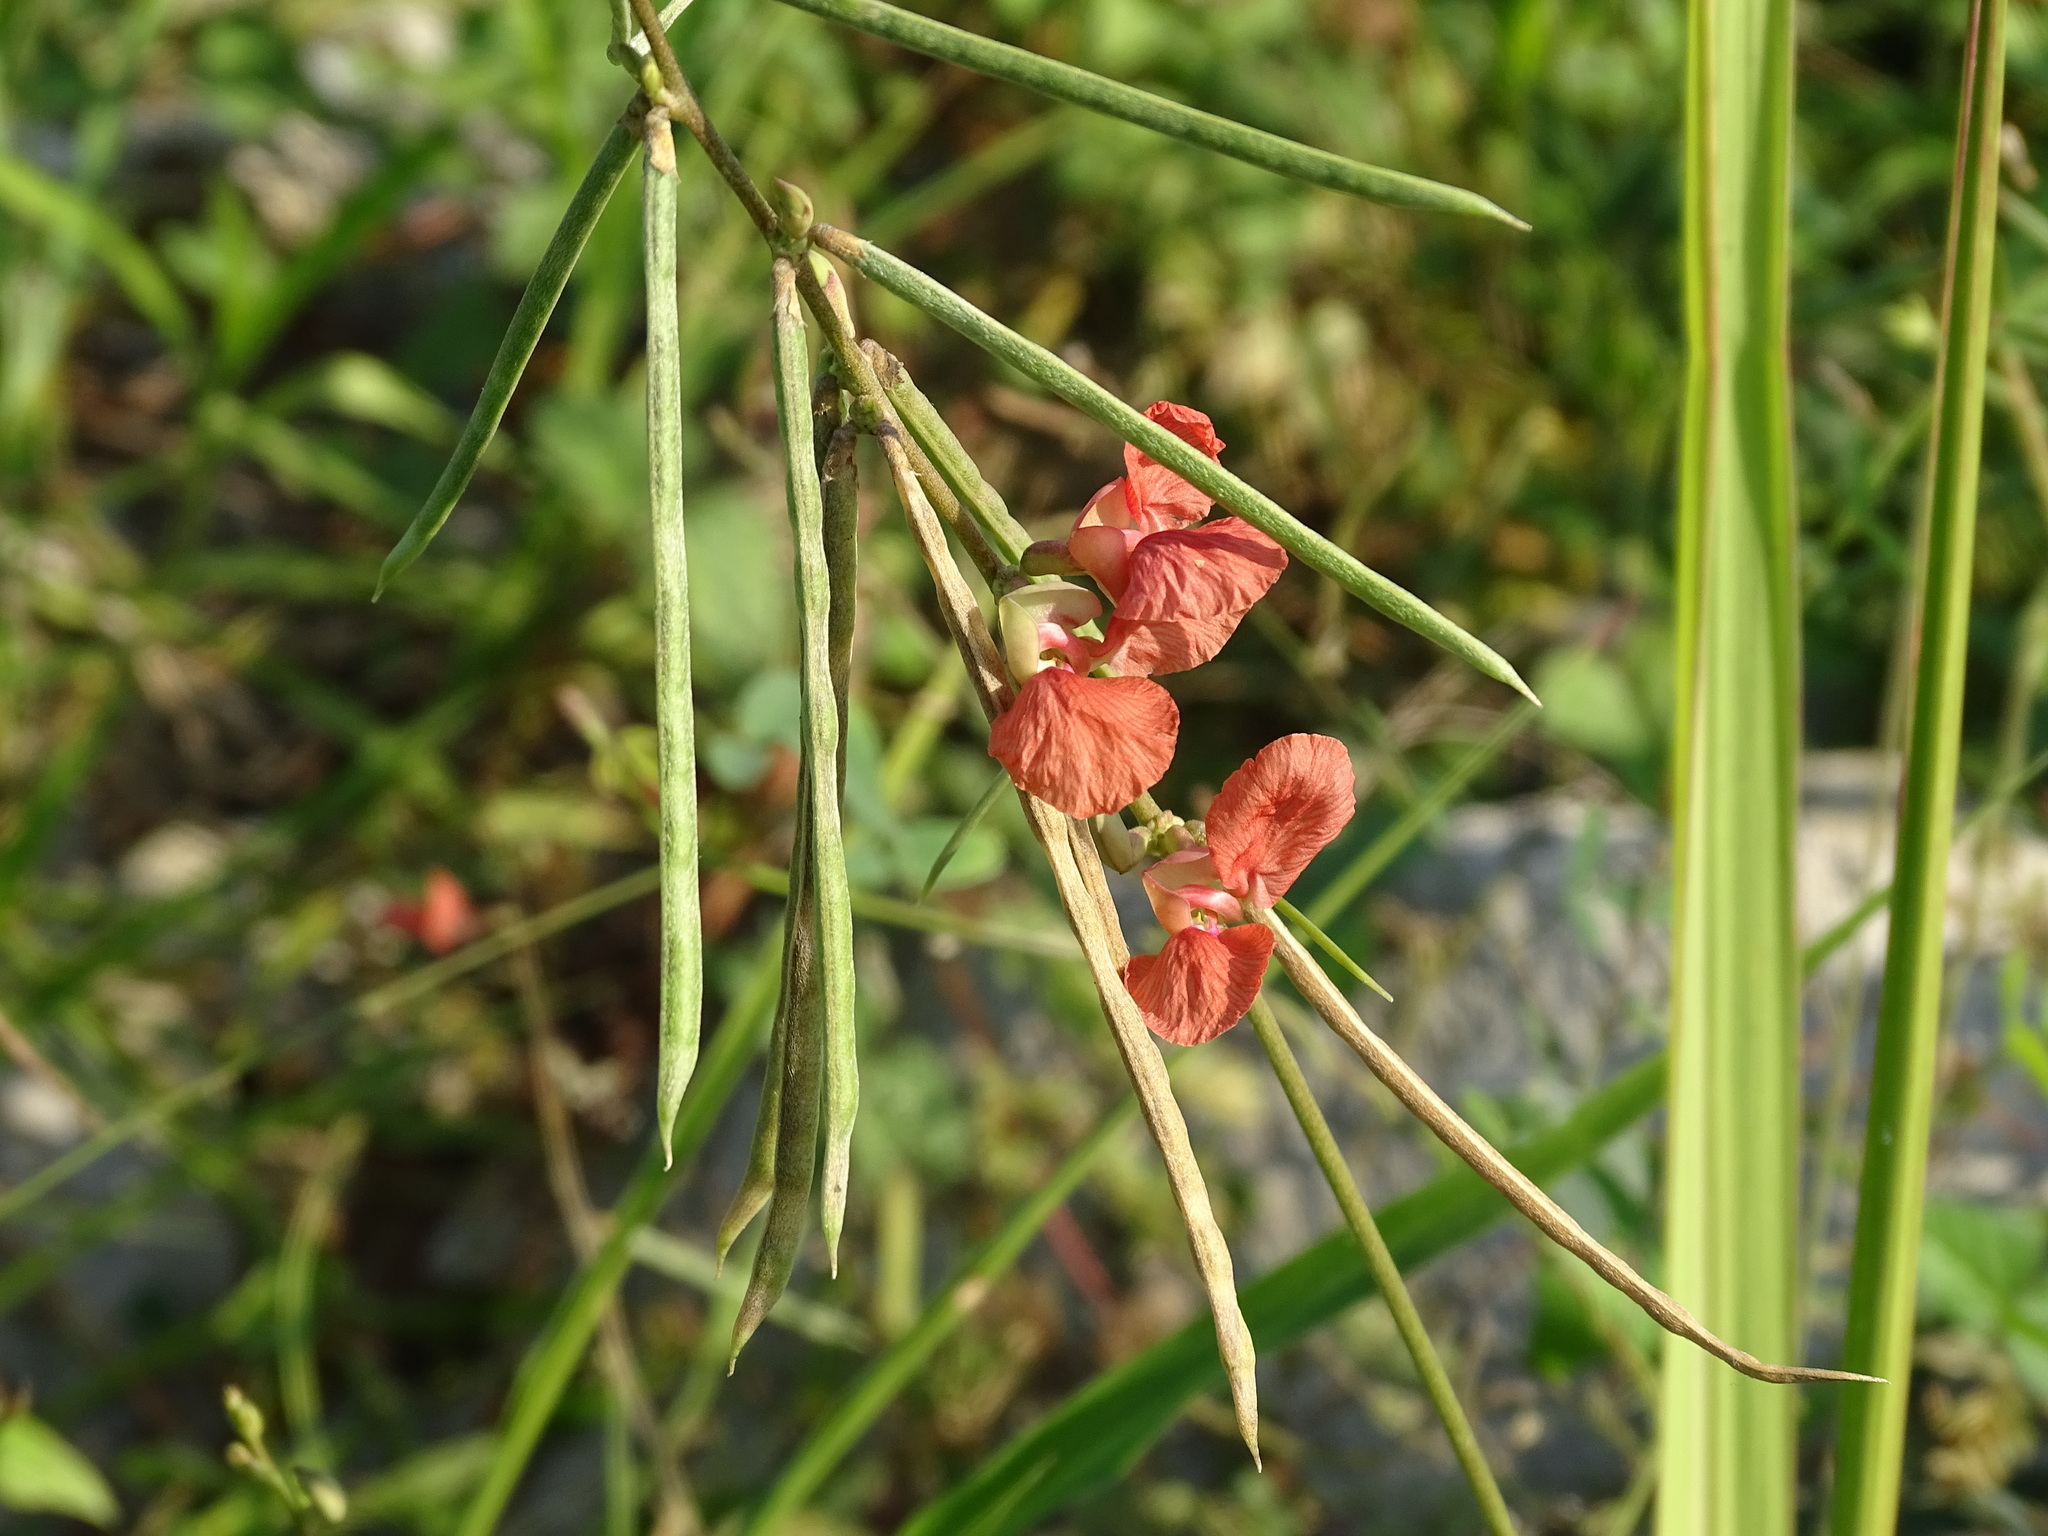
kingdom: Plantae
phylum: Tracheophyta
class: Magnoliopsida
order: Fabales
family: Fabaceae
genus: Macroptilium
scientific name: Macroptilium lathyroides
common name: Wild bushbean
